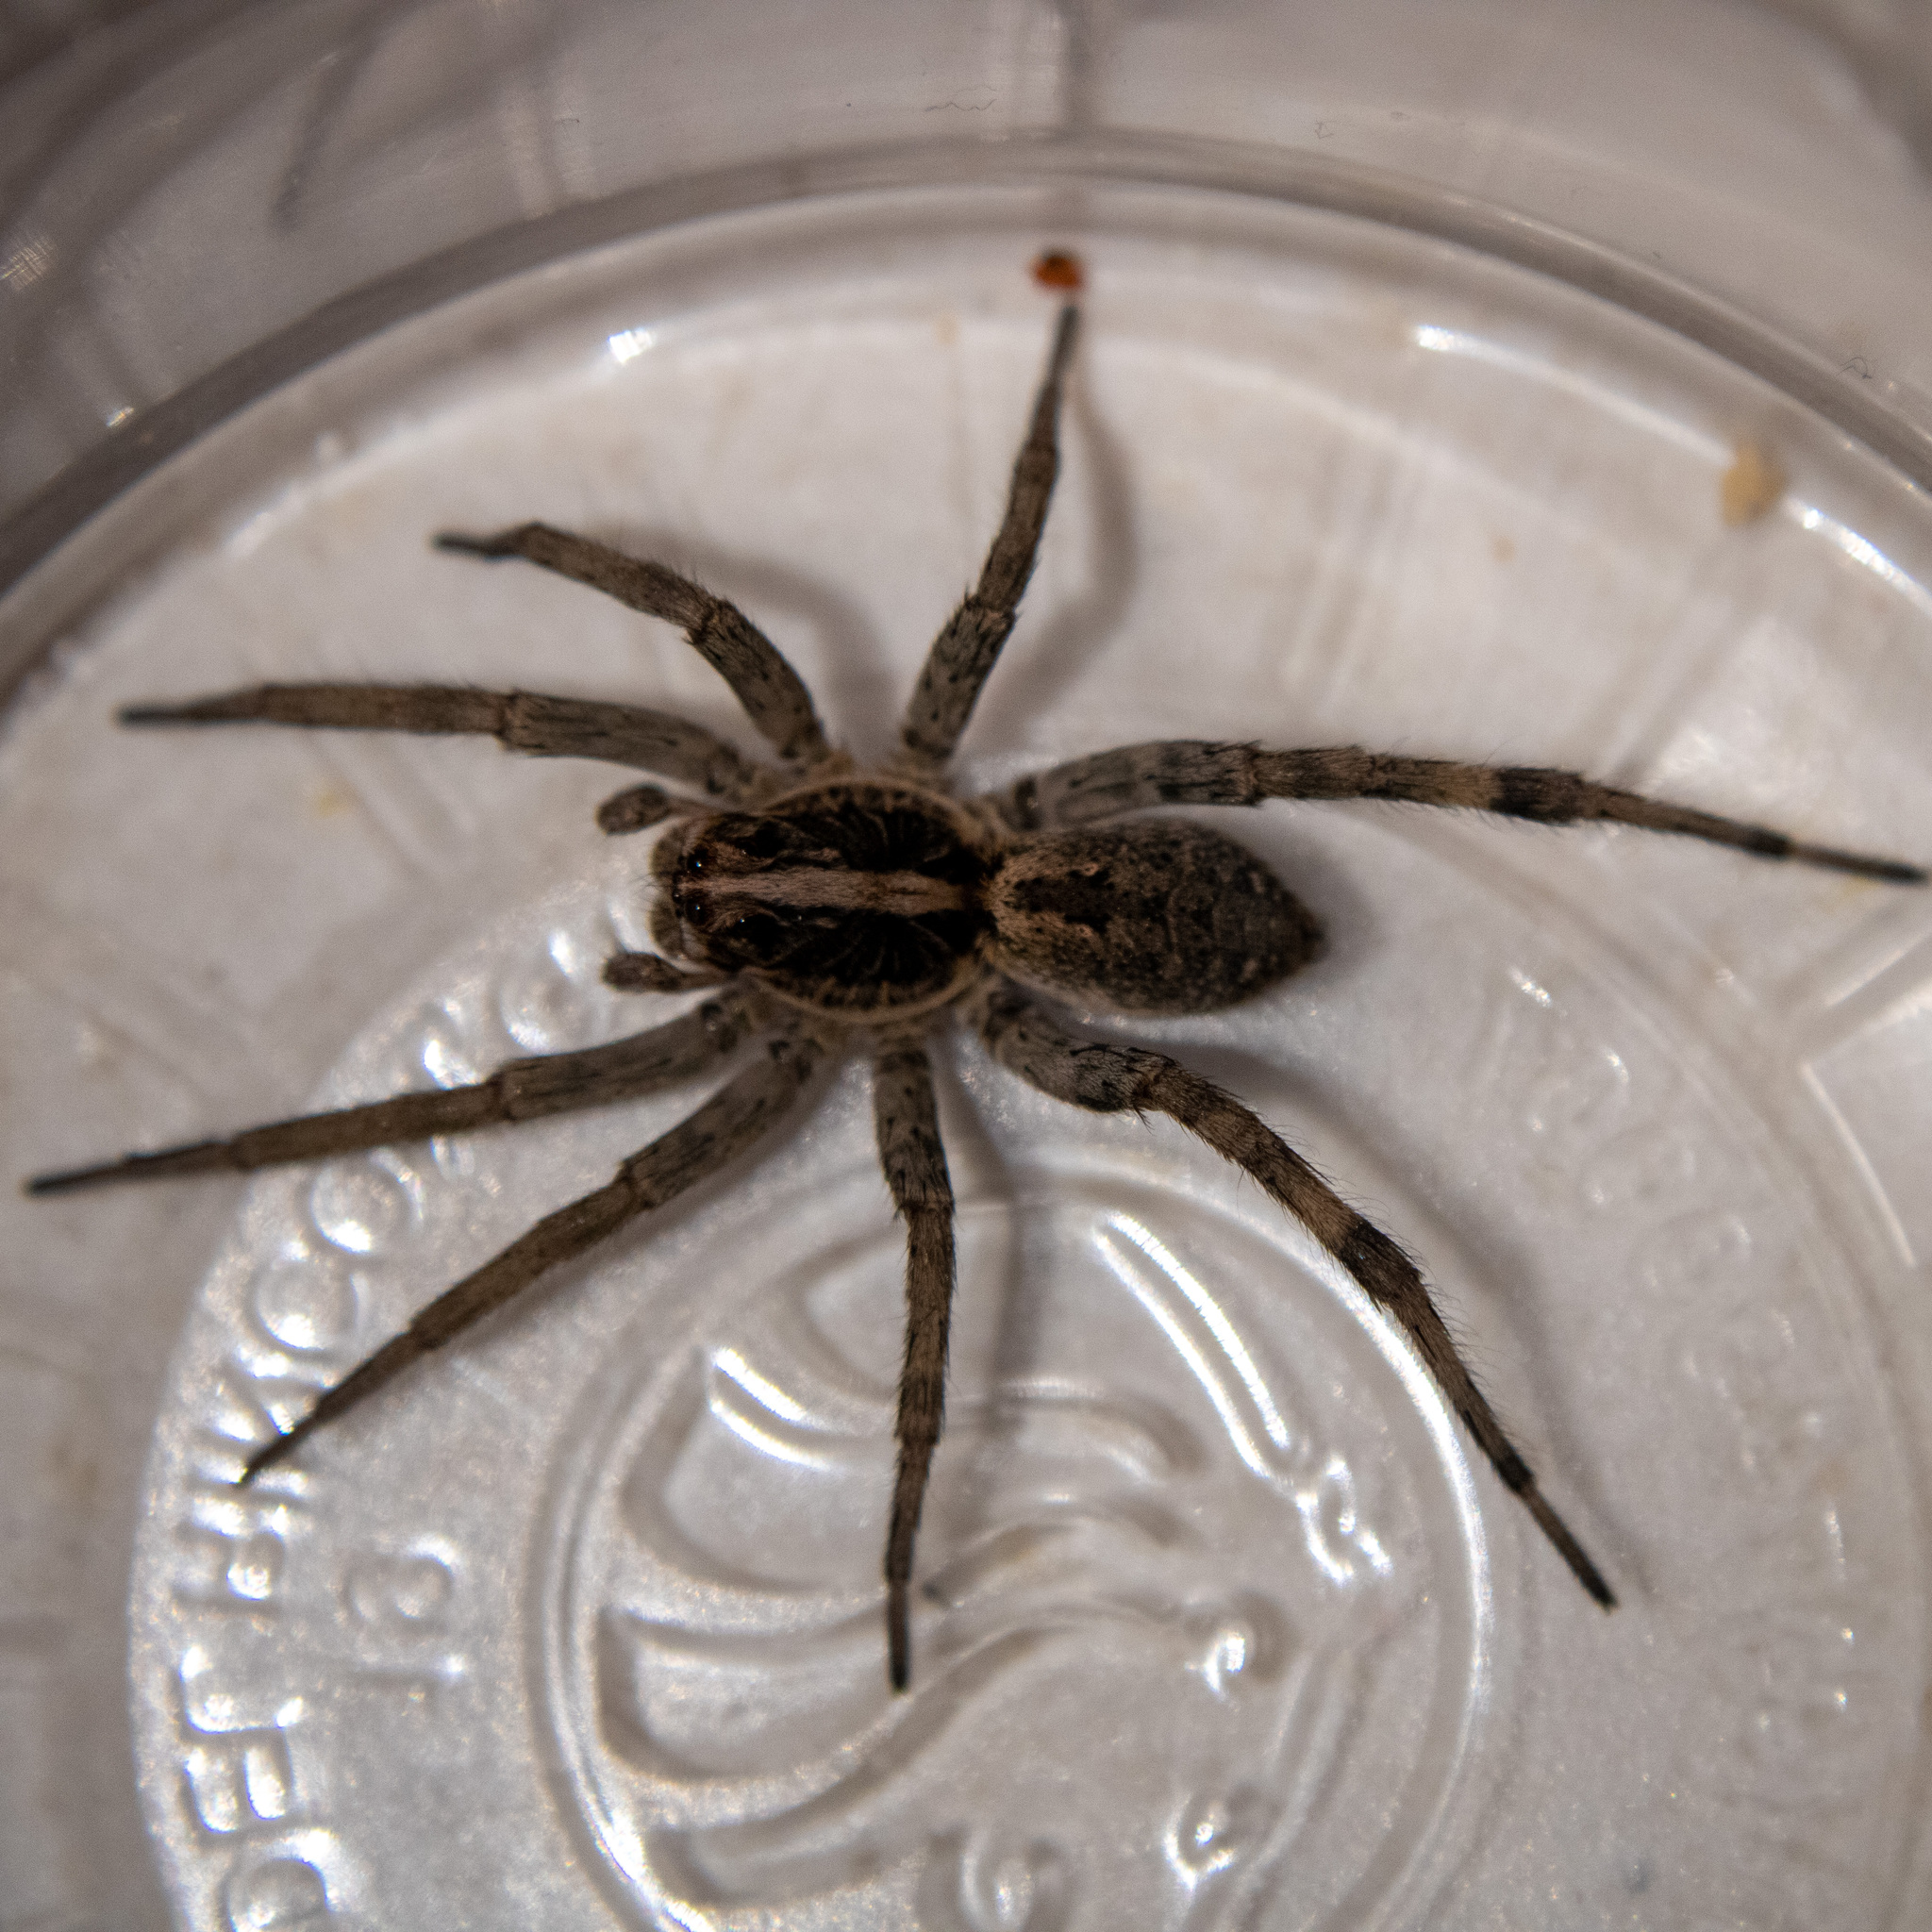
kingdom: Animalia
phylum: Arthropoda
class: Arachnida
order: Araneae
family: Lycosidae
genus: Hogna
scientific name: Hogna antelucana
